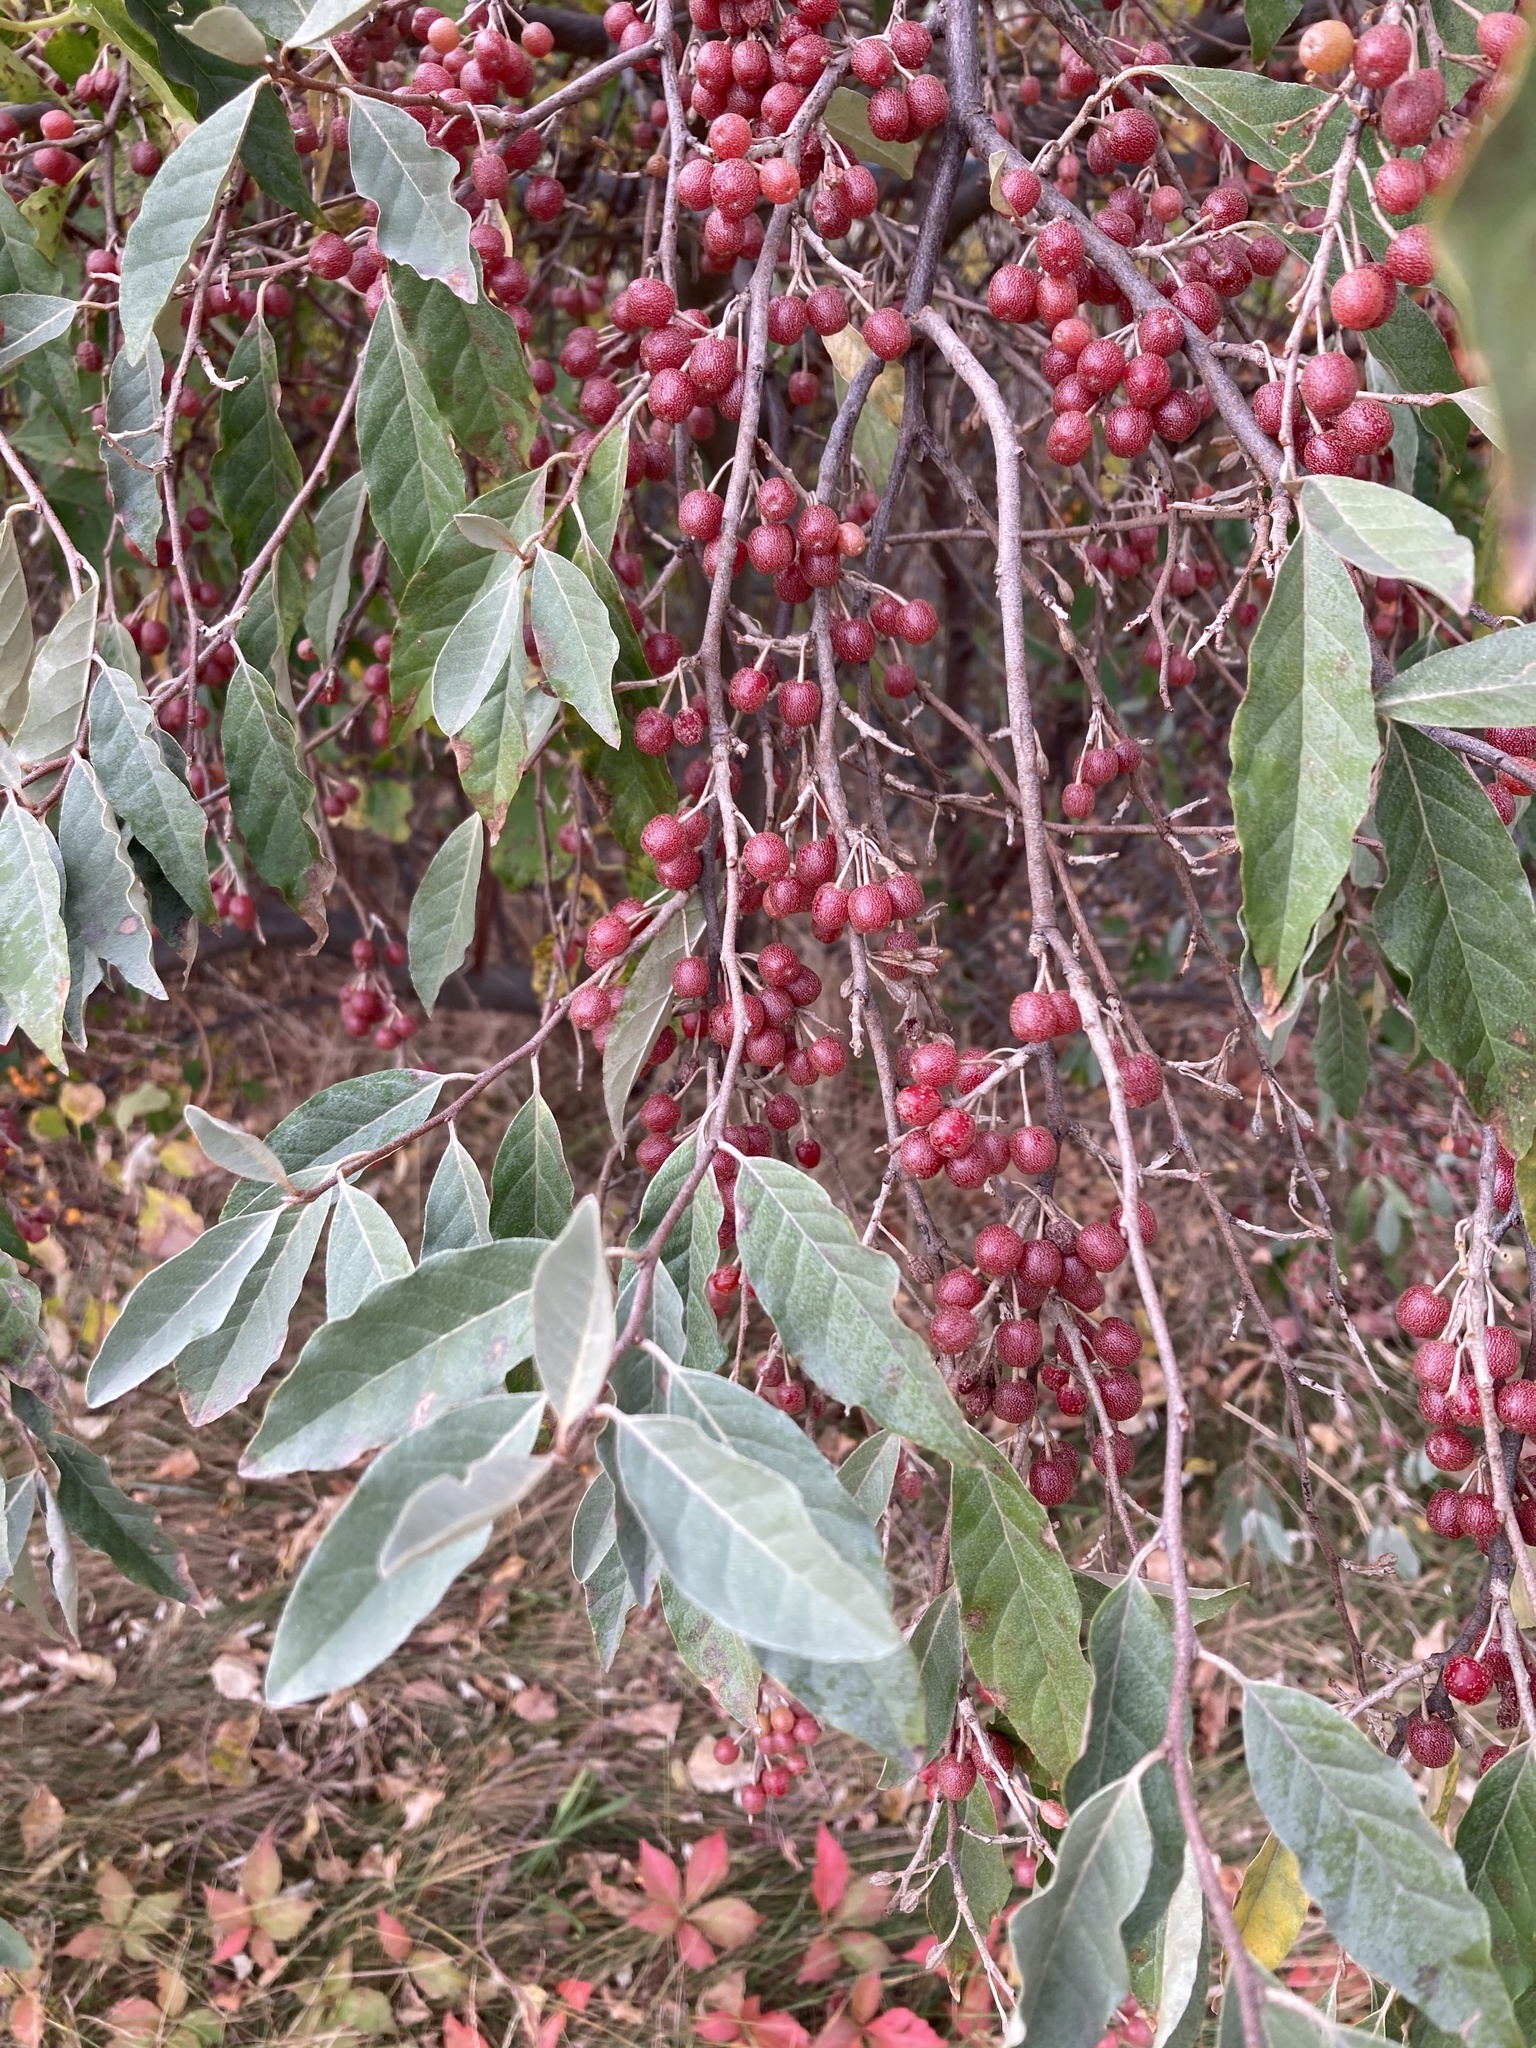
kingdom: Plantae
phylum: Tracheophyta
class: Magnoliopsida
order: Rosales
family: Elaeagnaceae
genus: Elaeagnus
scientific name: Elaeagnus umbellata
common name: Autumn olive
